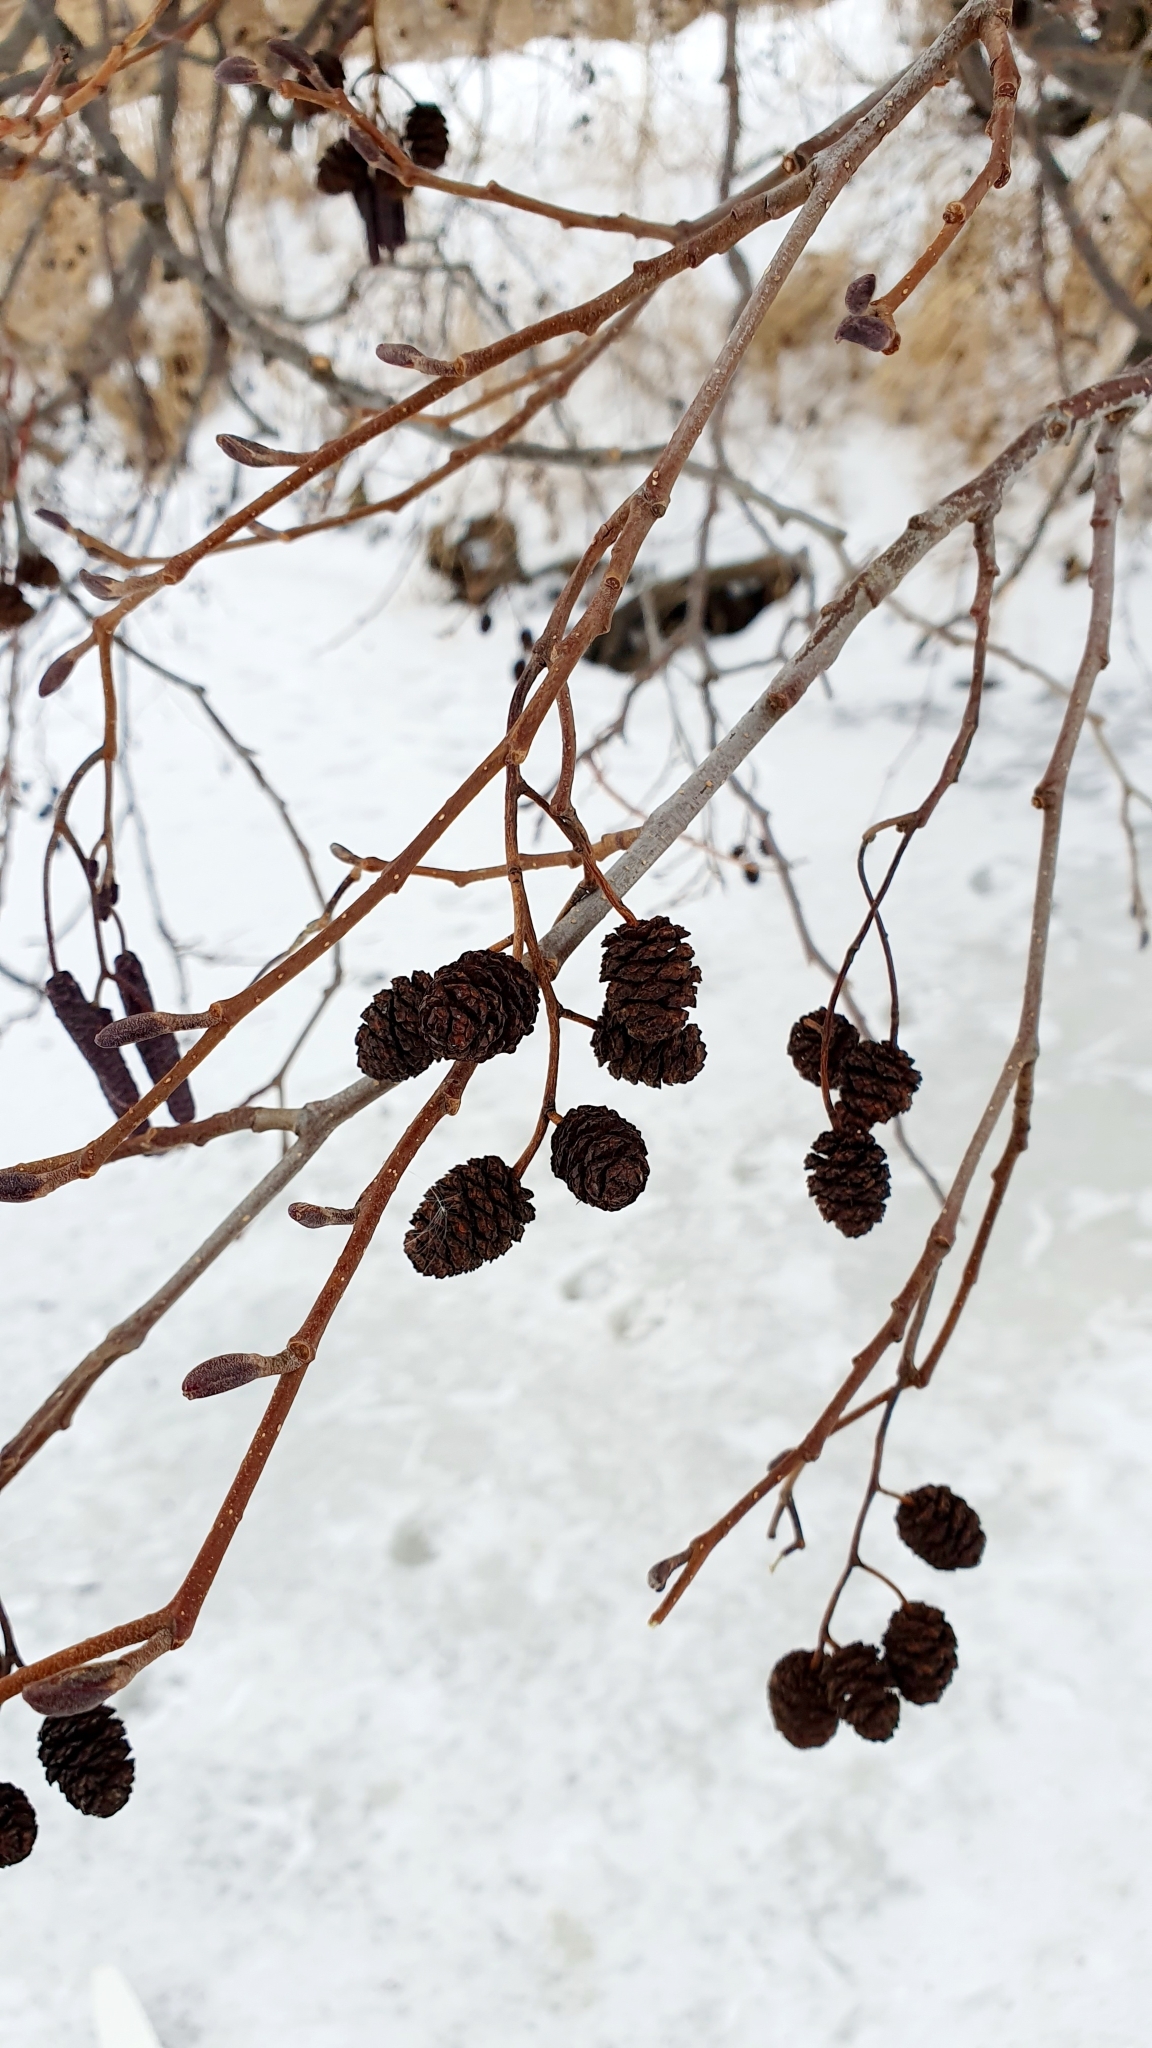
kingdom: Plantae
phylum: Tracheophyta
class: Magnoliopsida
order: Fagales
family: Betulaceae
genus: Alnus
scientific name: Alnus glutinosa
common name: Black alder
